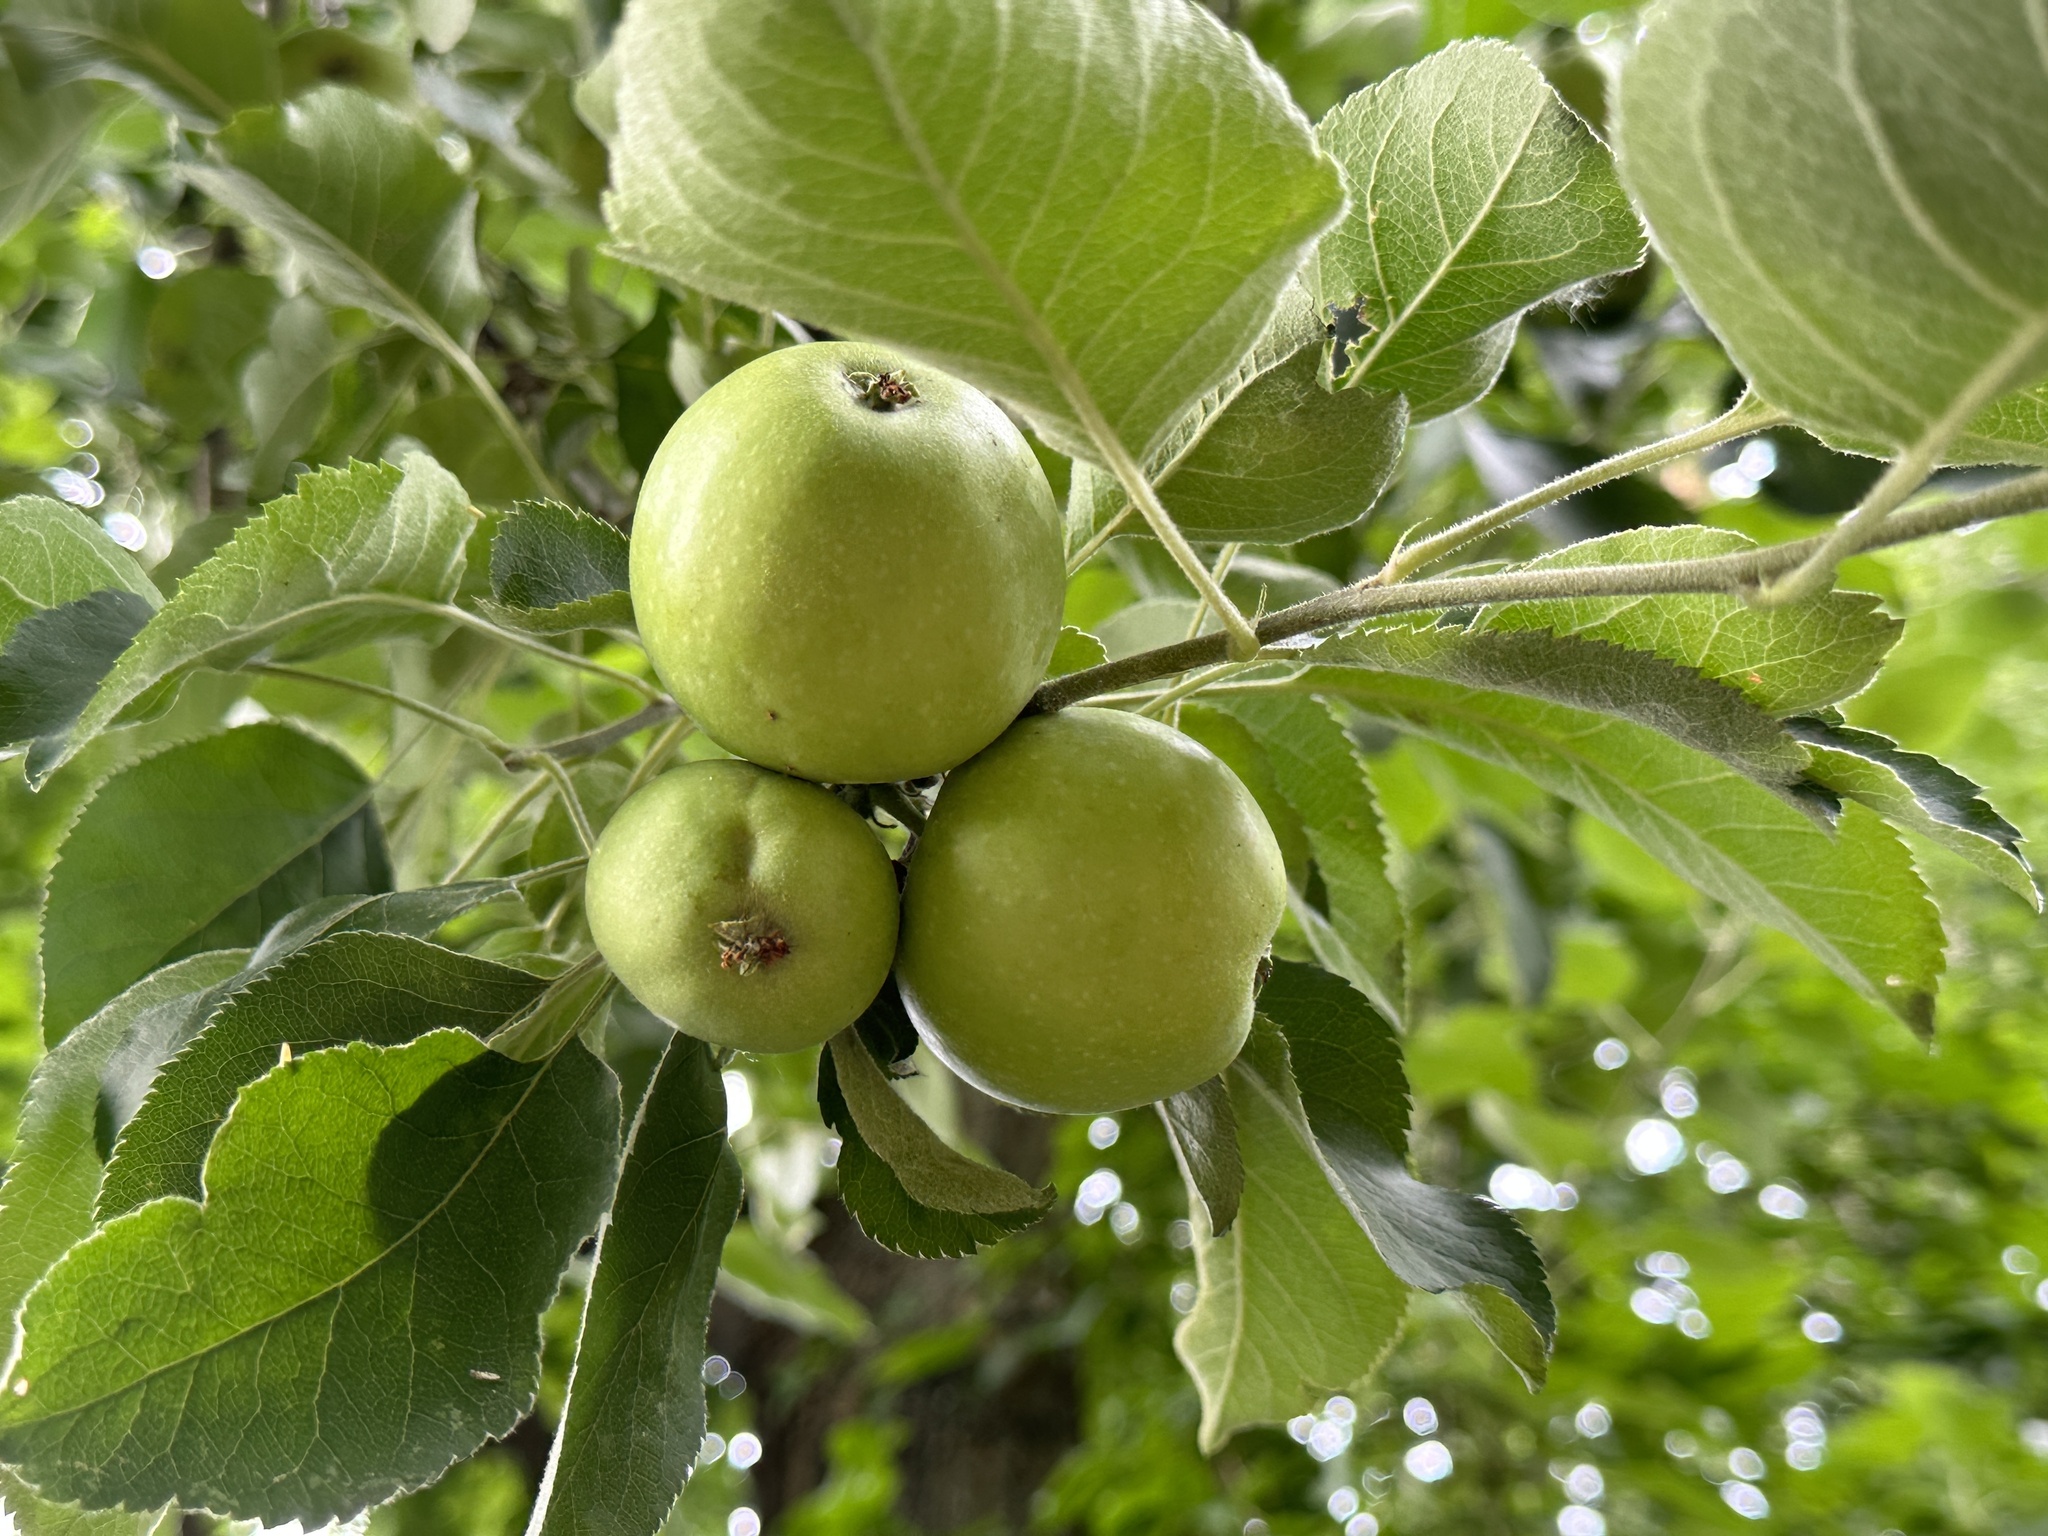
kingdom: Plantae
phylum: Tracheophyta
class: Magnoliopsida
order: Rosales
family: Rosaceae
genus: Malus
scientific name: Malus domestica
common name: Apple
